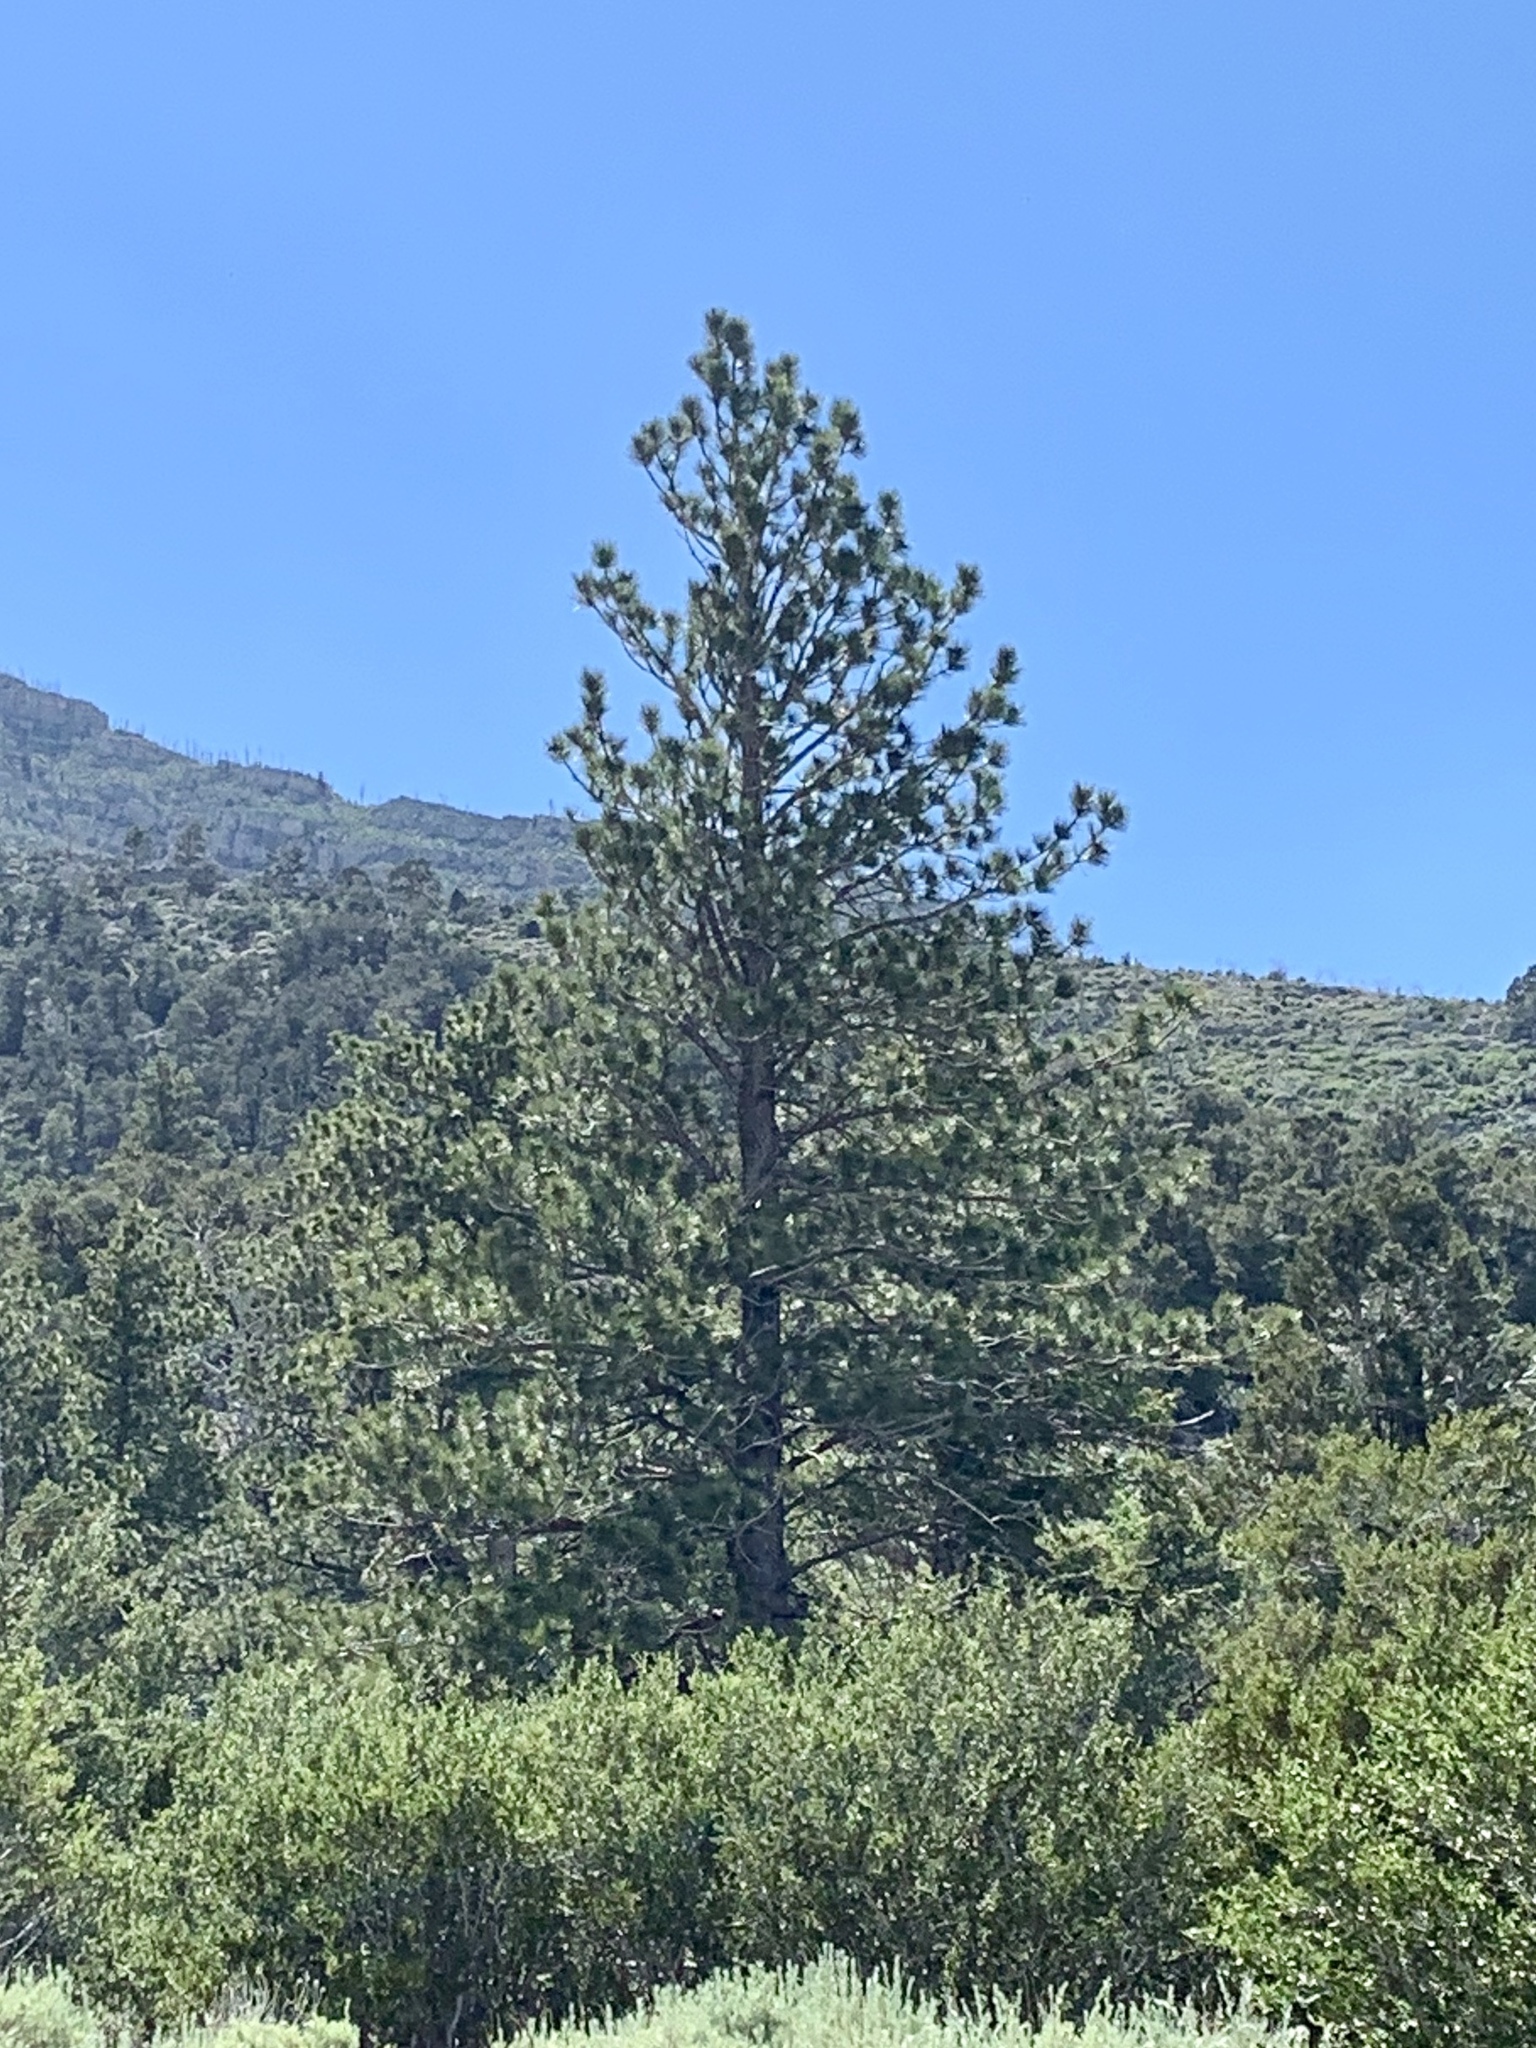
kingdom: Plantae
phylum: Tracheophyta
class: Pinopsida
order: Pinales
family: Pinaceae
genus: Pinus
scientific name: Pinus ponderosa
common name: Western yellow-pine
